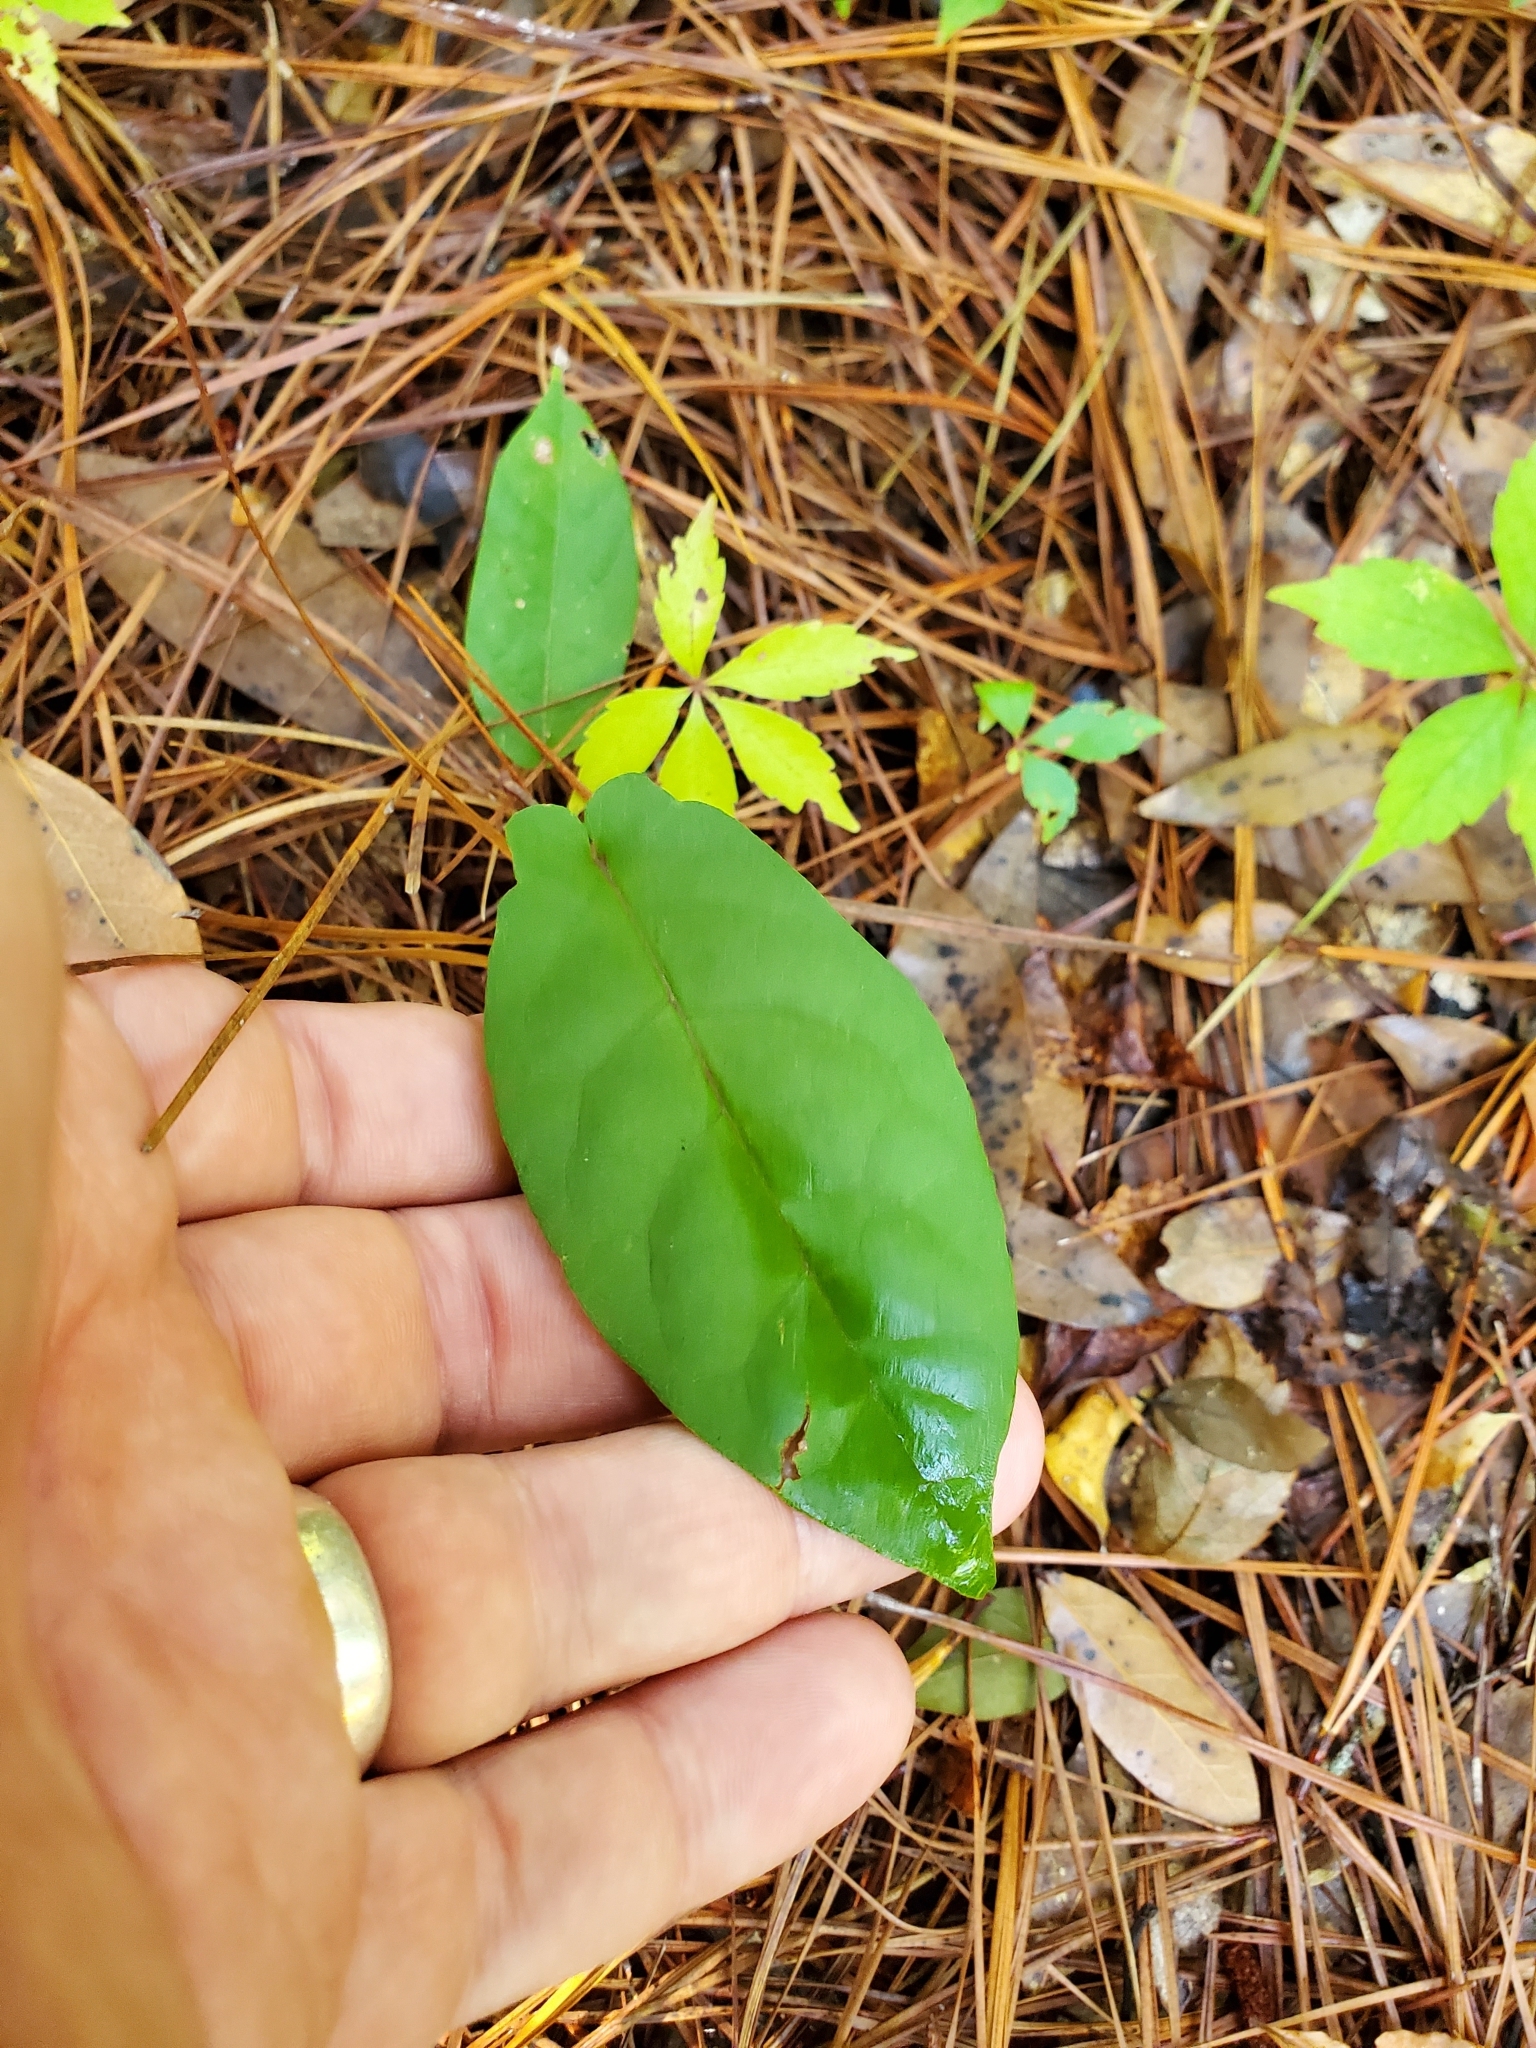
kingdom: Plantae
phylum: Tracheophyta
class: Magnoliopsida
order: Lamiales
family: Bignoniaceae
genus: Bignonia
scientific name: Bignonia capreolata
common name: Crossvine
